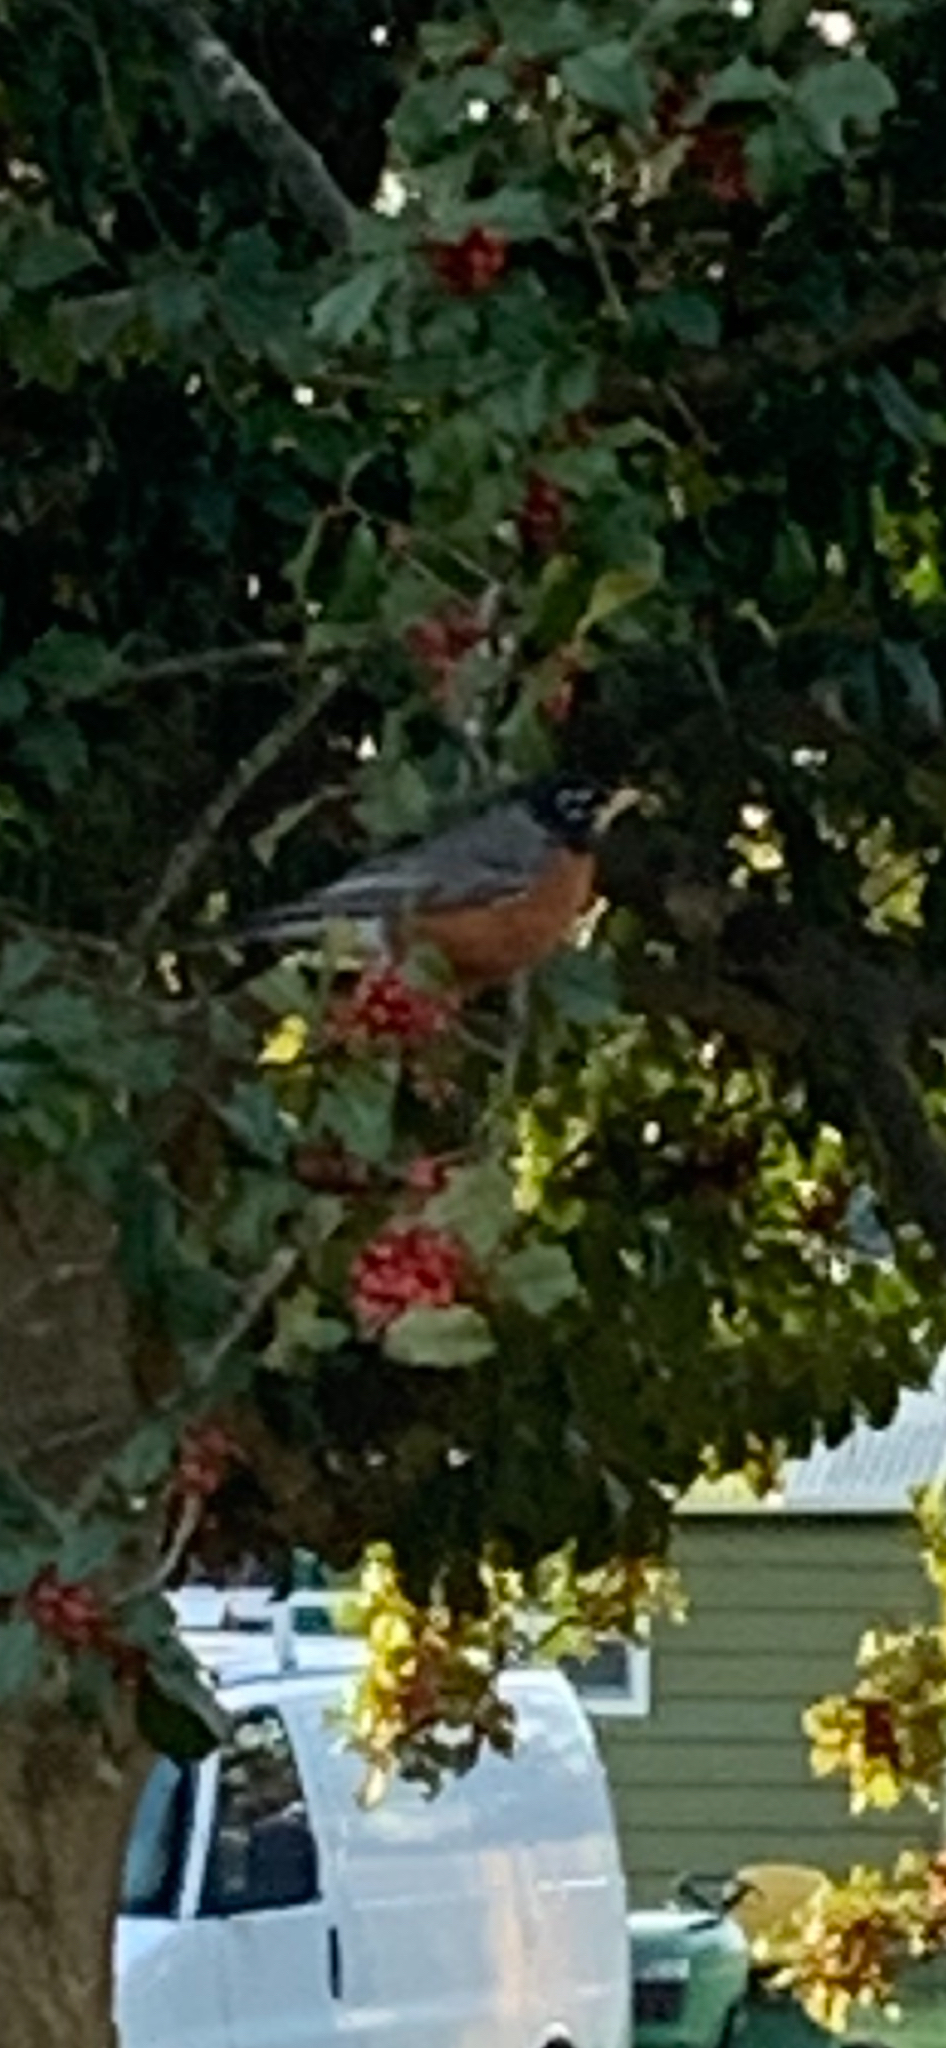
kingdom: Animalia
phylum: Chordata
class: Aves
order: Passeriformes
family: Turdidae
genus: Turdus
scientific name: Turdus migratorius
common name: American robin
